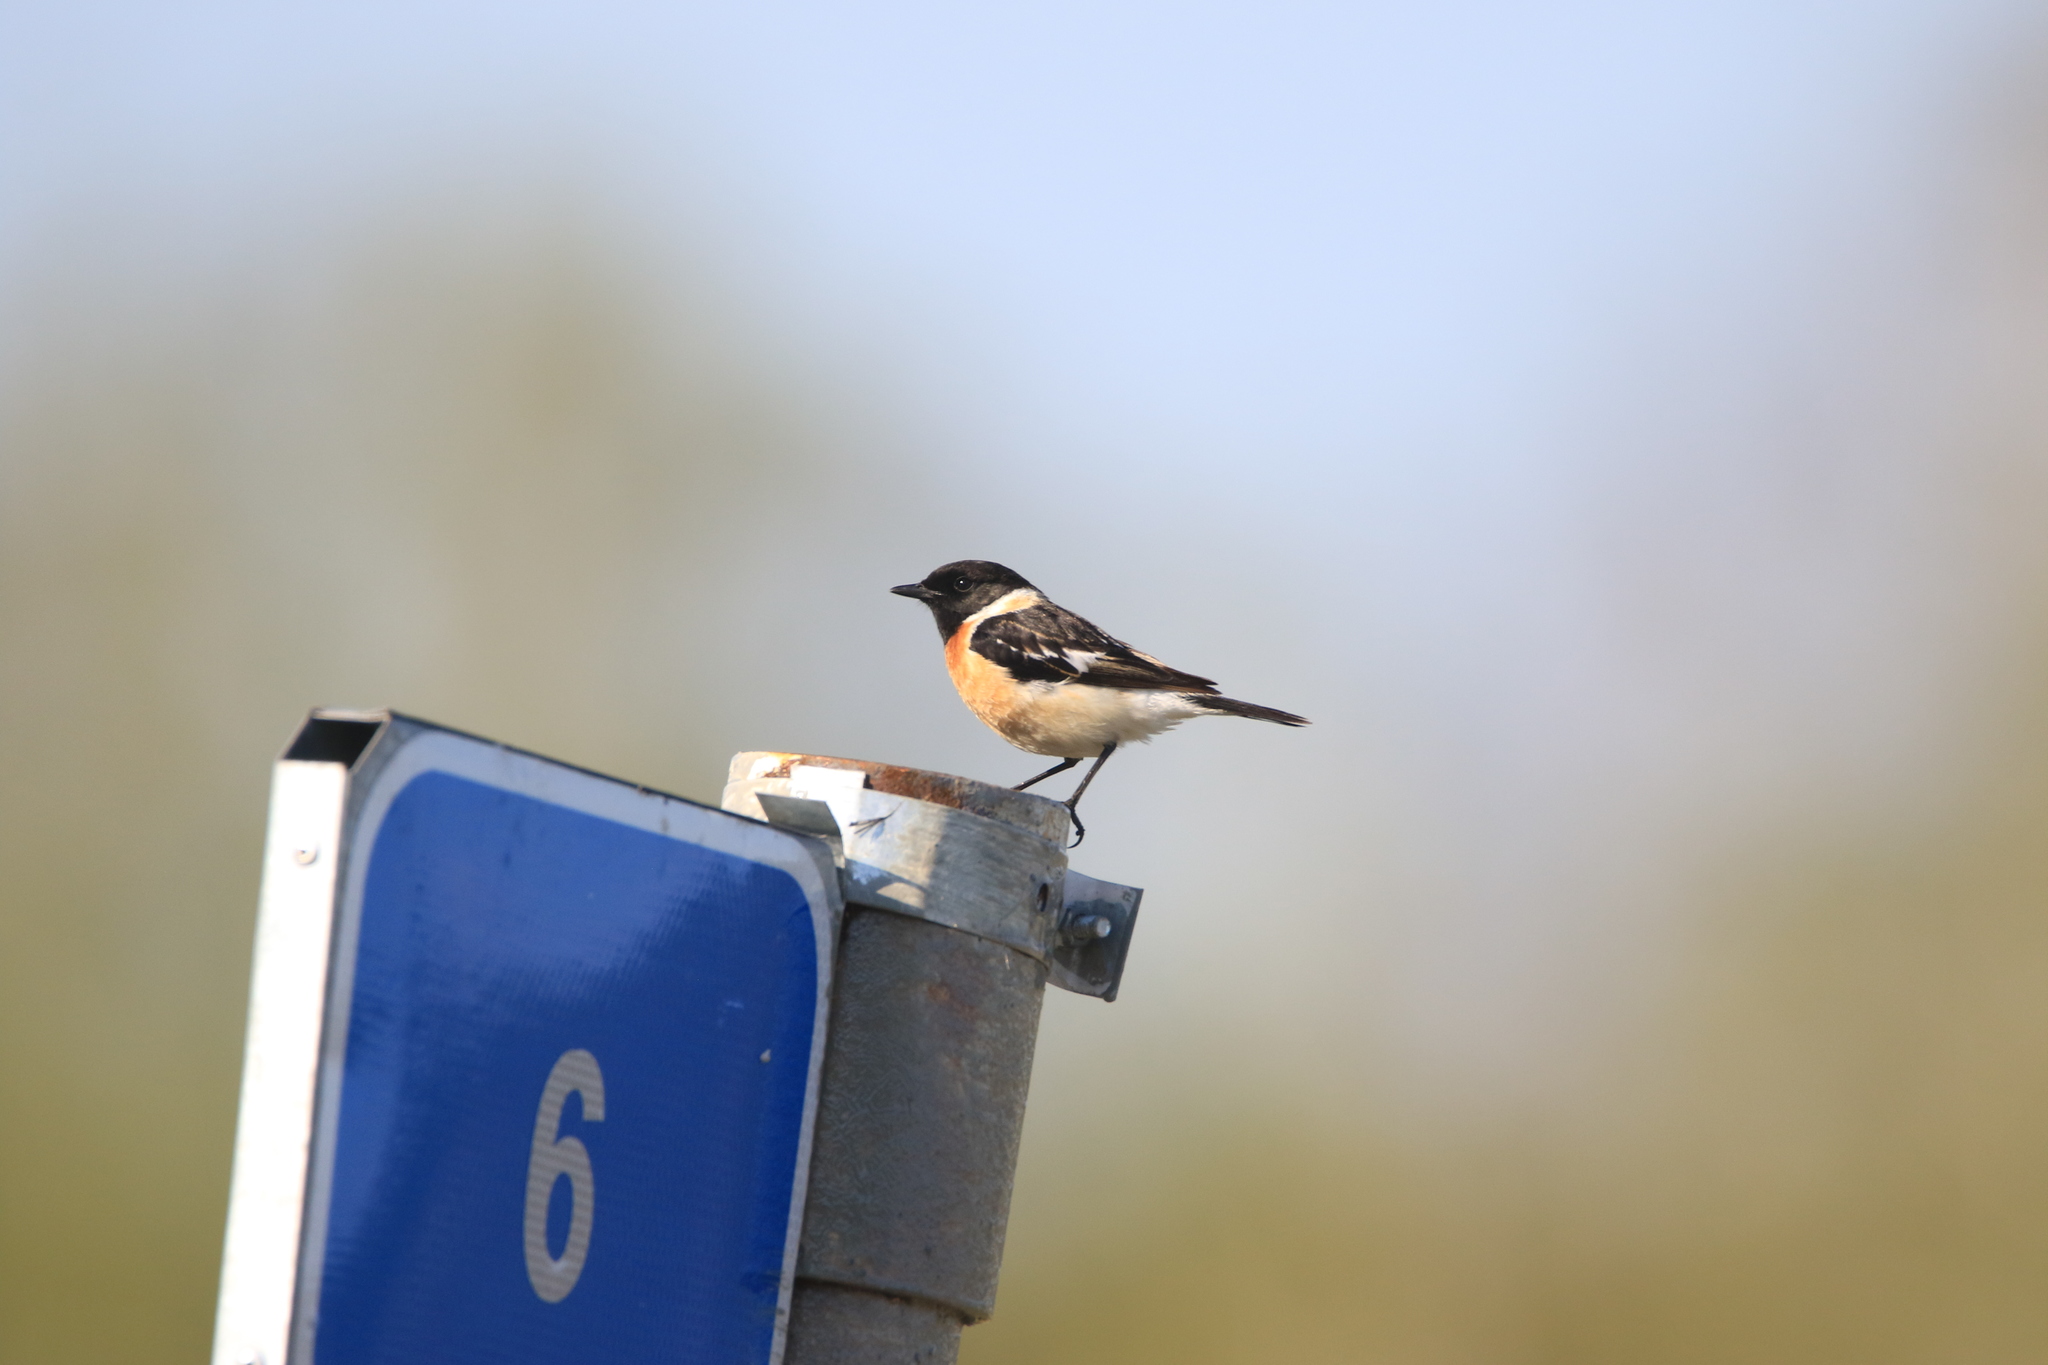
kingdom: Animalia
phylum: Chordata
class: Aves
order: Passeriformes
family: Muscicapidae
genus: Saxicola
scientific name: Saxicola maurus
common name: Siberian stonechat
